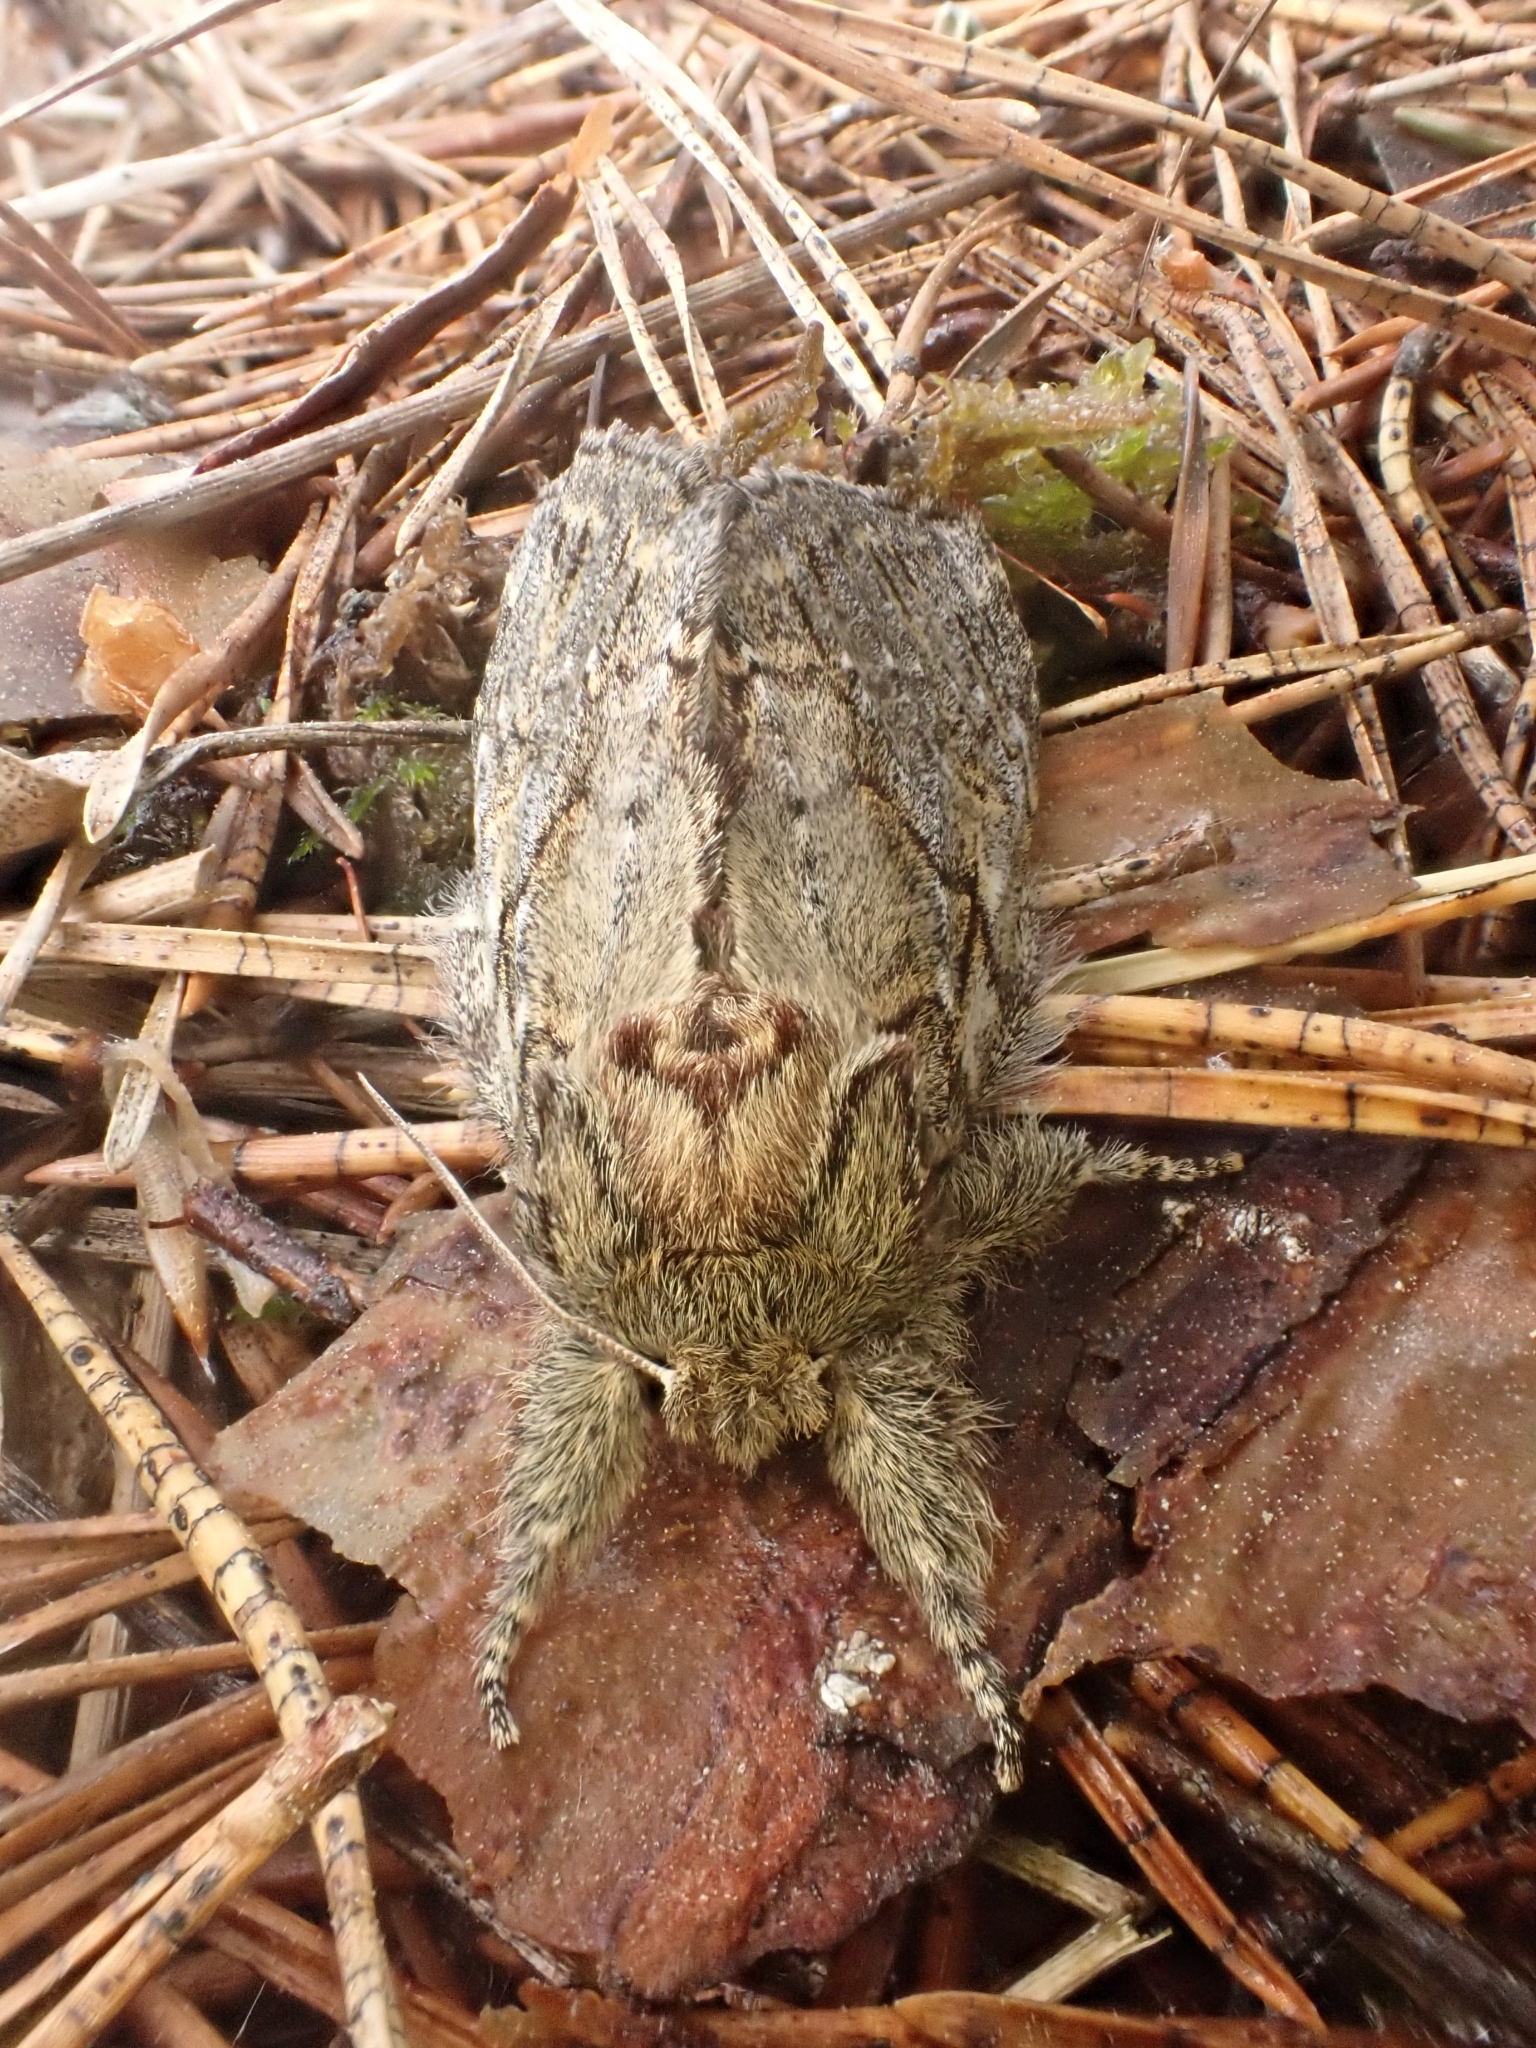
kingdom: Animalia
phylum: Arthropoda
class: Insecta
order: Lepidoptera
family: Notodontidae
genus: Peridea
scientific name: Peridea anceps
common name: Great prominent
